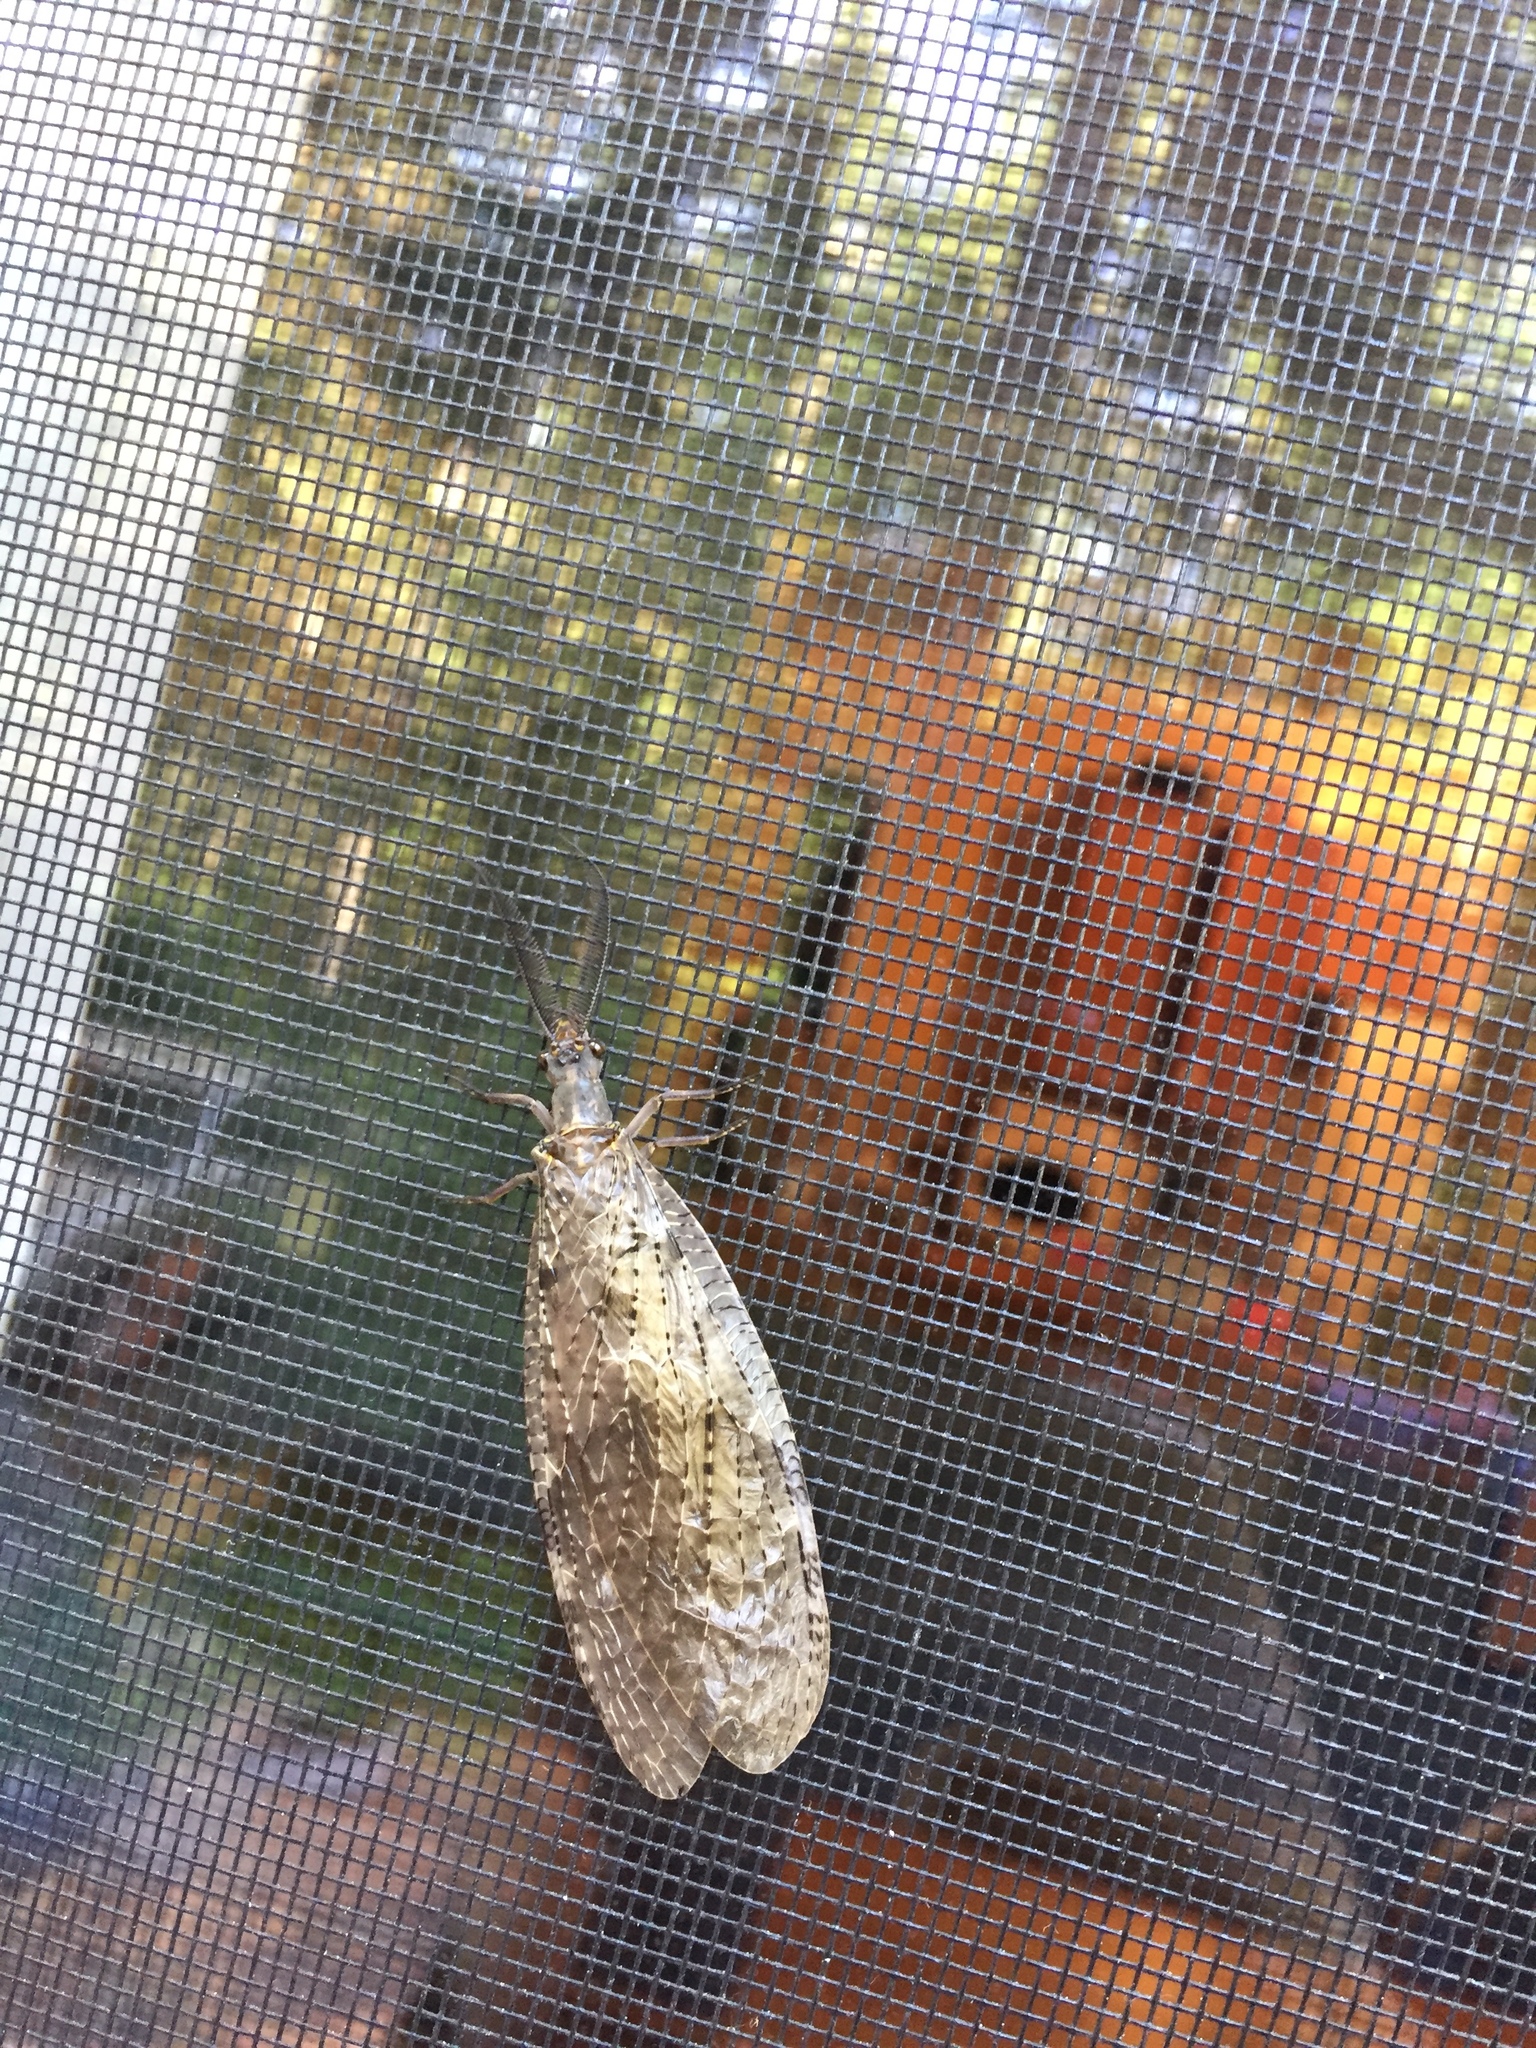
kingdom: Animalia
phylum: Arthropoda
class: Insecta
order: Megaloptera
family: Corydalidae
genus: Chauliodes
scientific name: Chauliodes pectinicornis
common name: Summer fishfly
